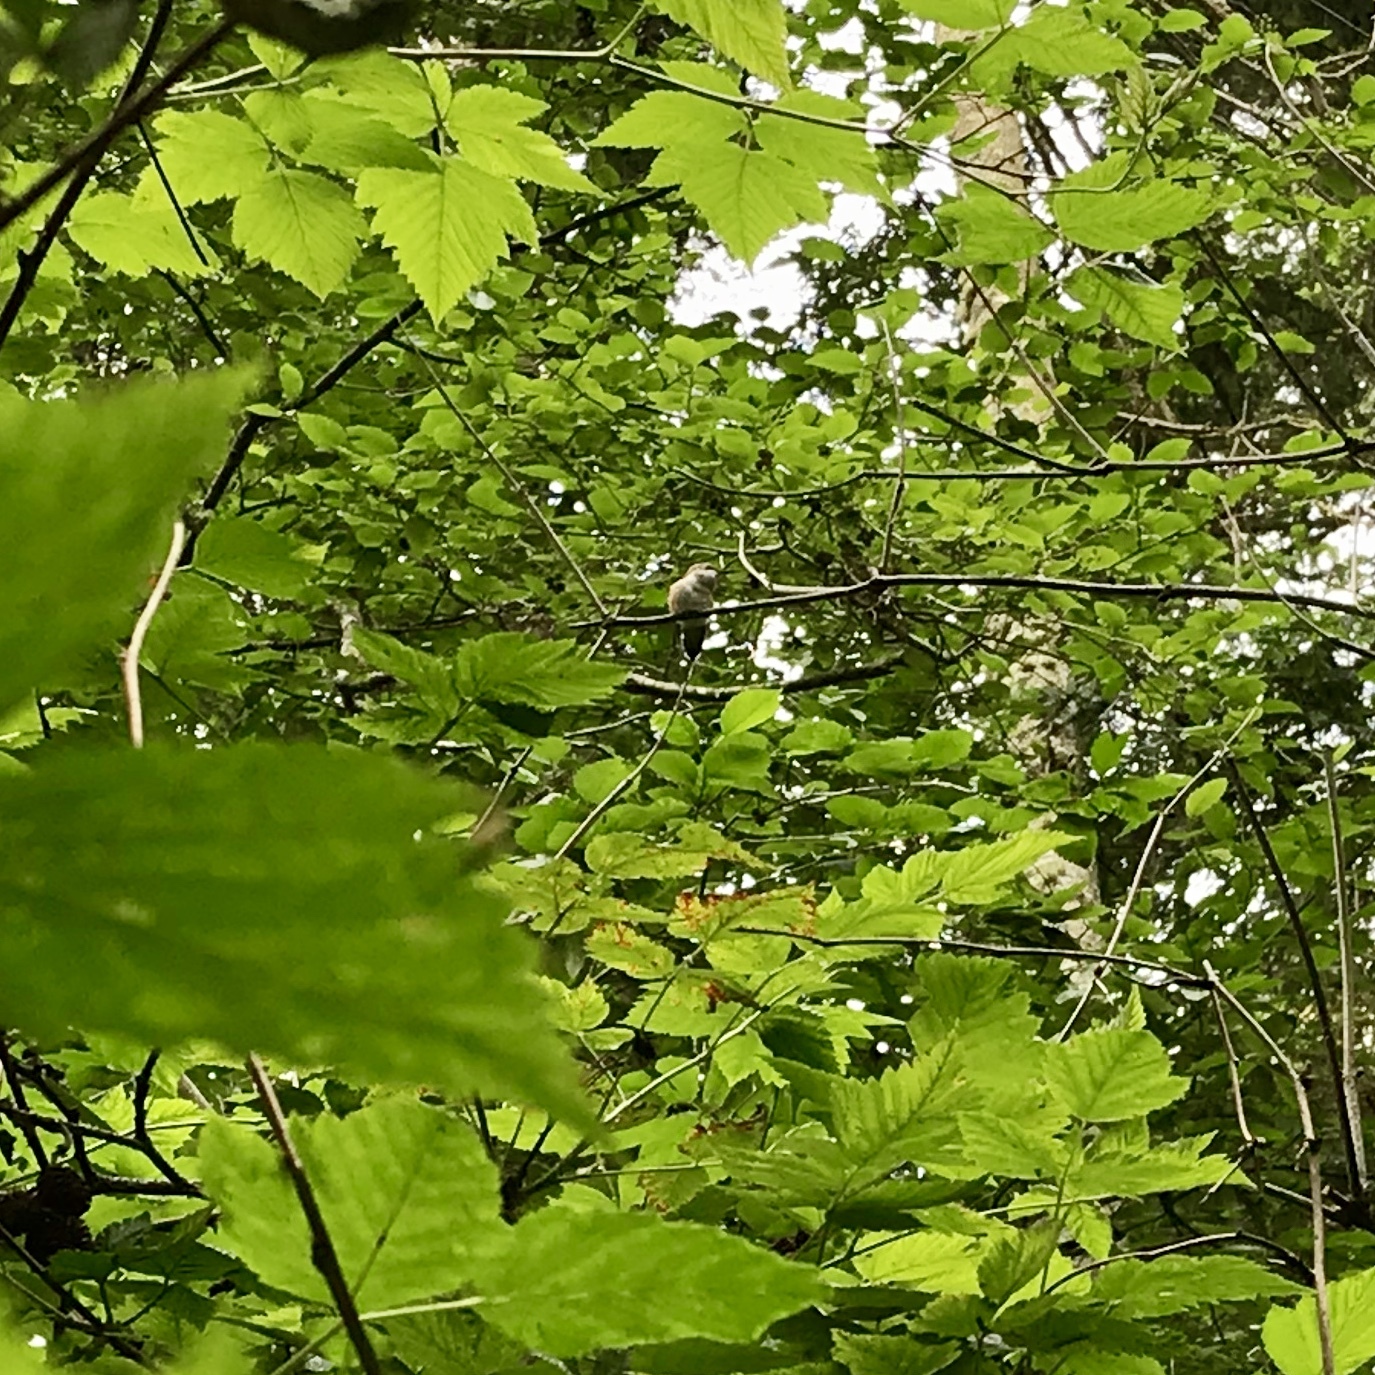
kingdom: Animalia
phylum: Chordata
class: Aves
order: Apodiformes
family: Trochilidae
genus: Selasphorus
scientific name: Selasphorus rufus
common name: Rufous hummingbird
